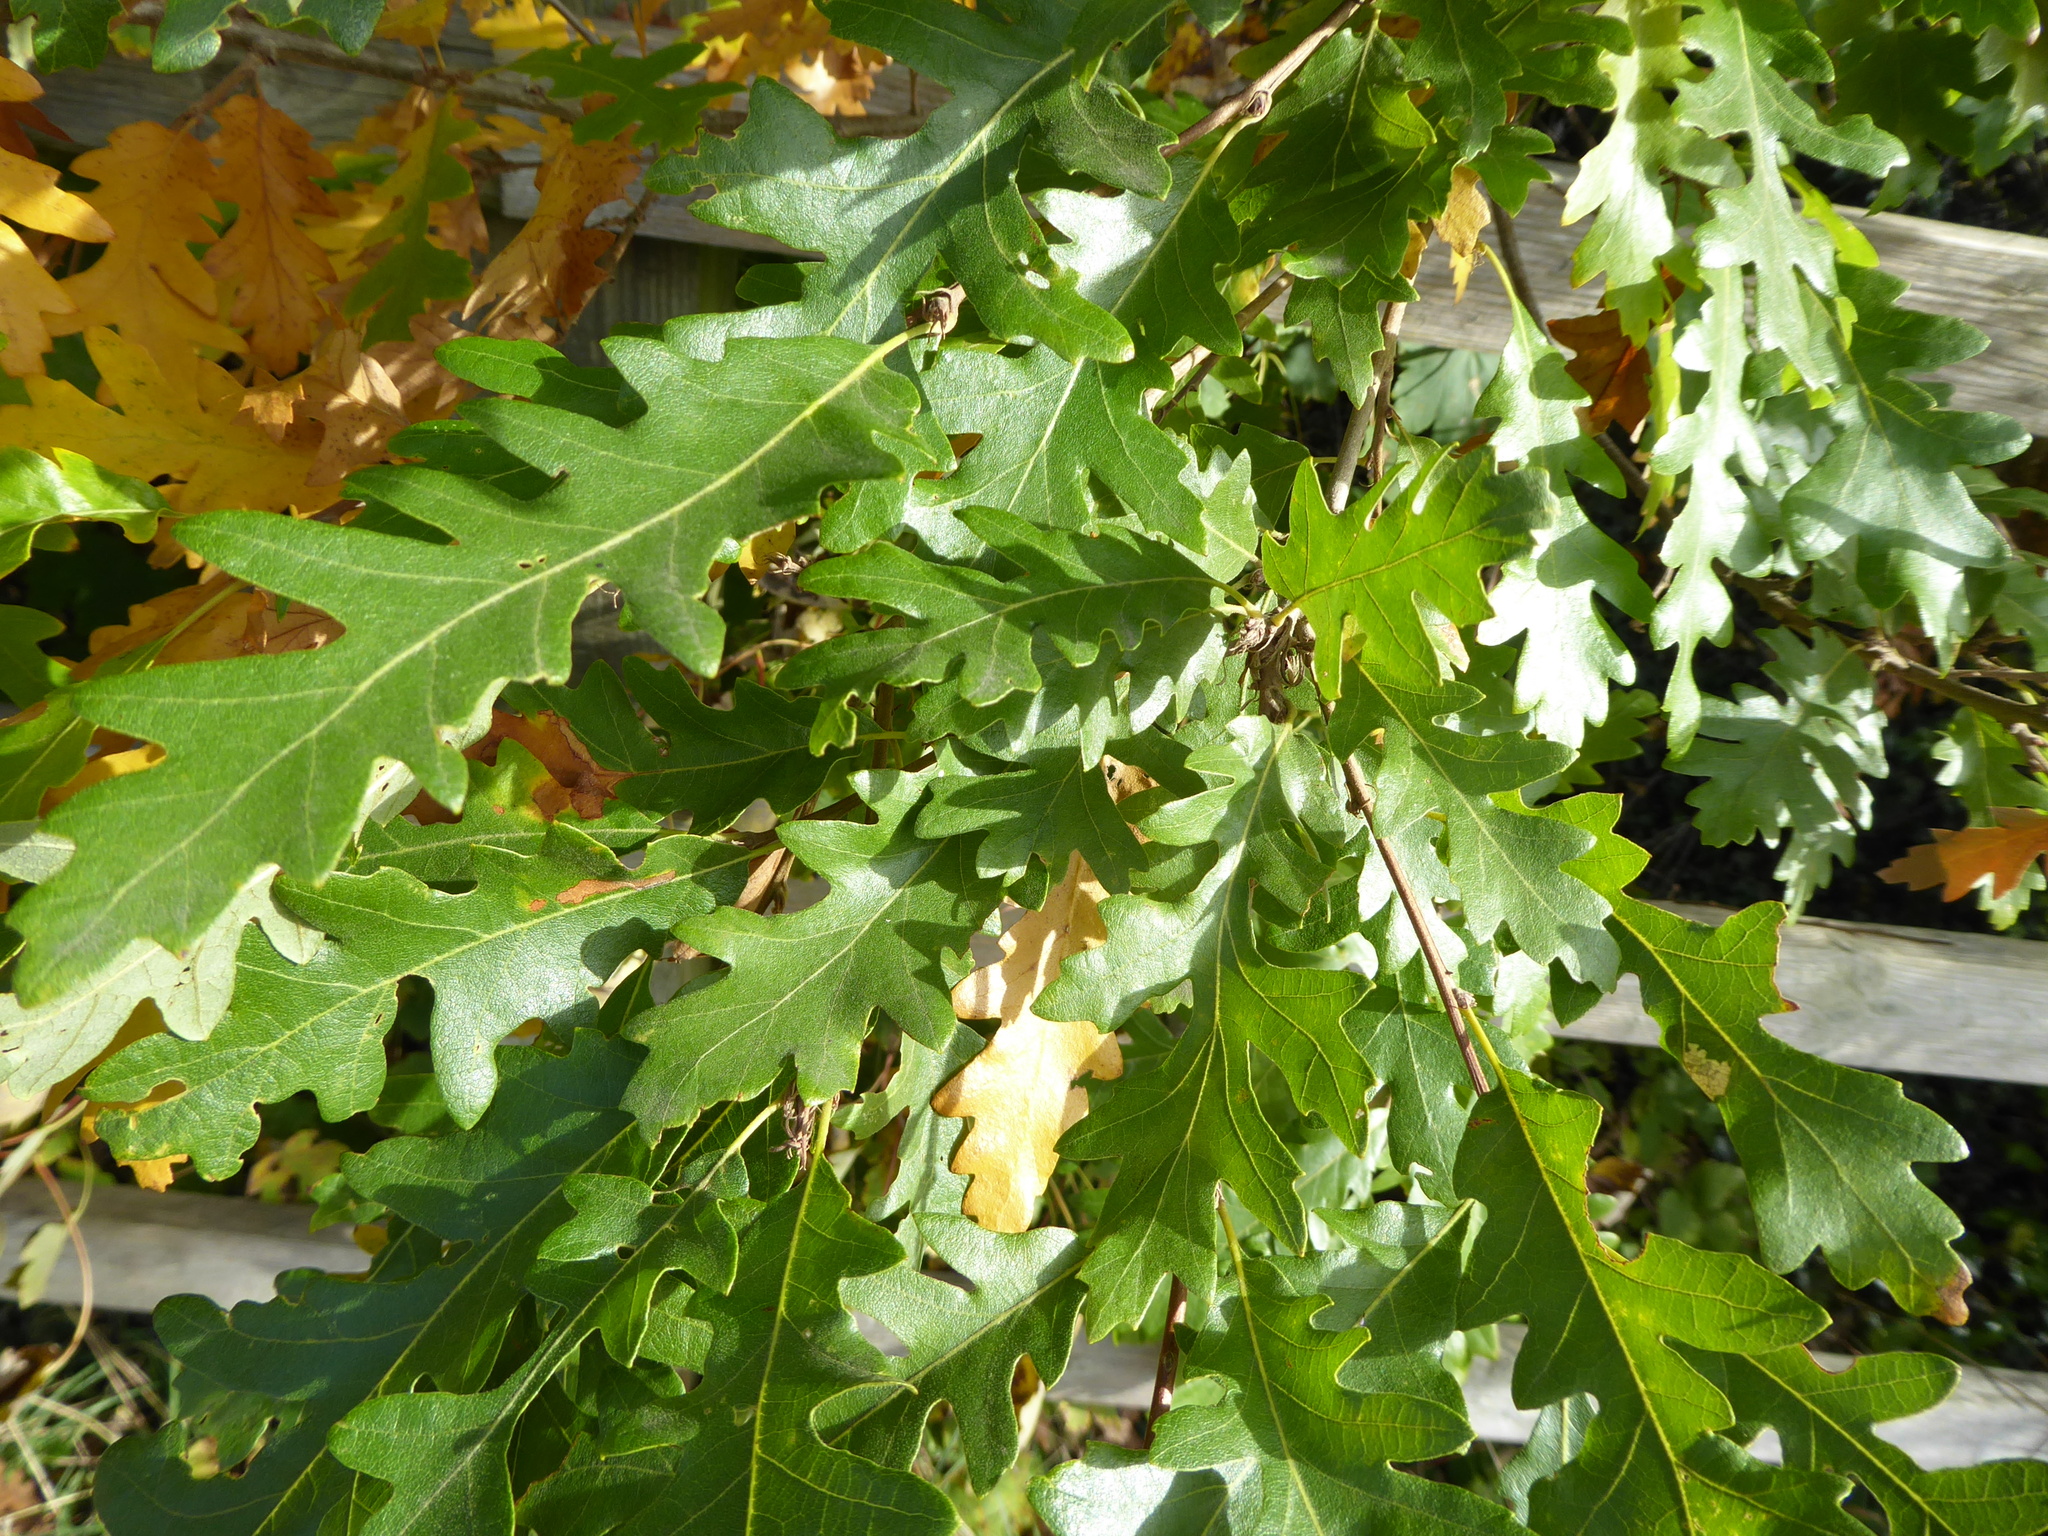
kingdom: Plantae
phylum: Tracheophyta
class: Magnoliopsida
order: Fagales
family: Fagaceae
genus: Quercus
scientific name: Quercus cerris
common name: Turkey oak
